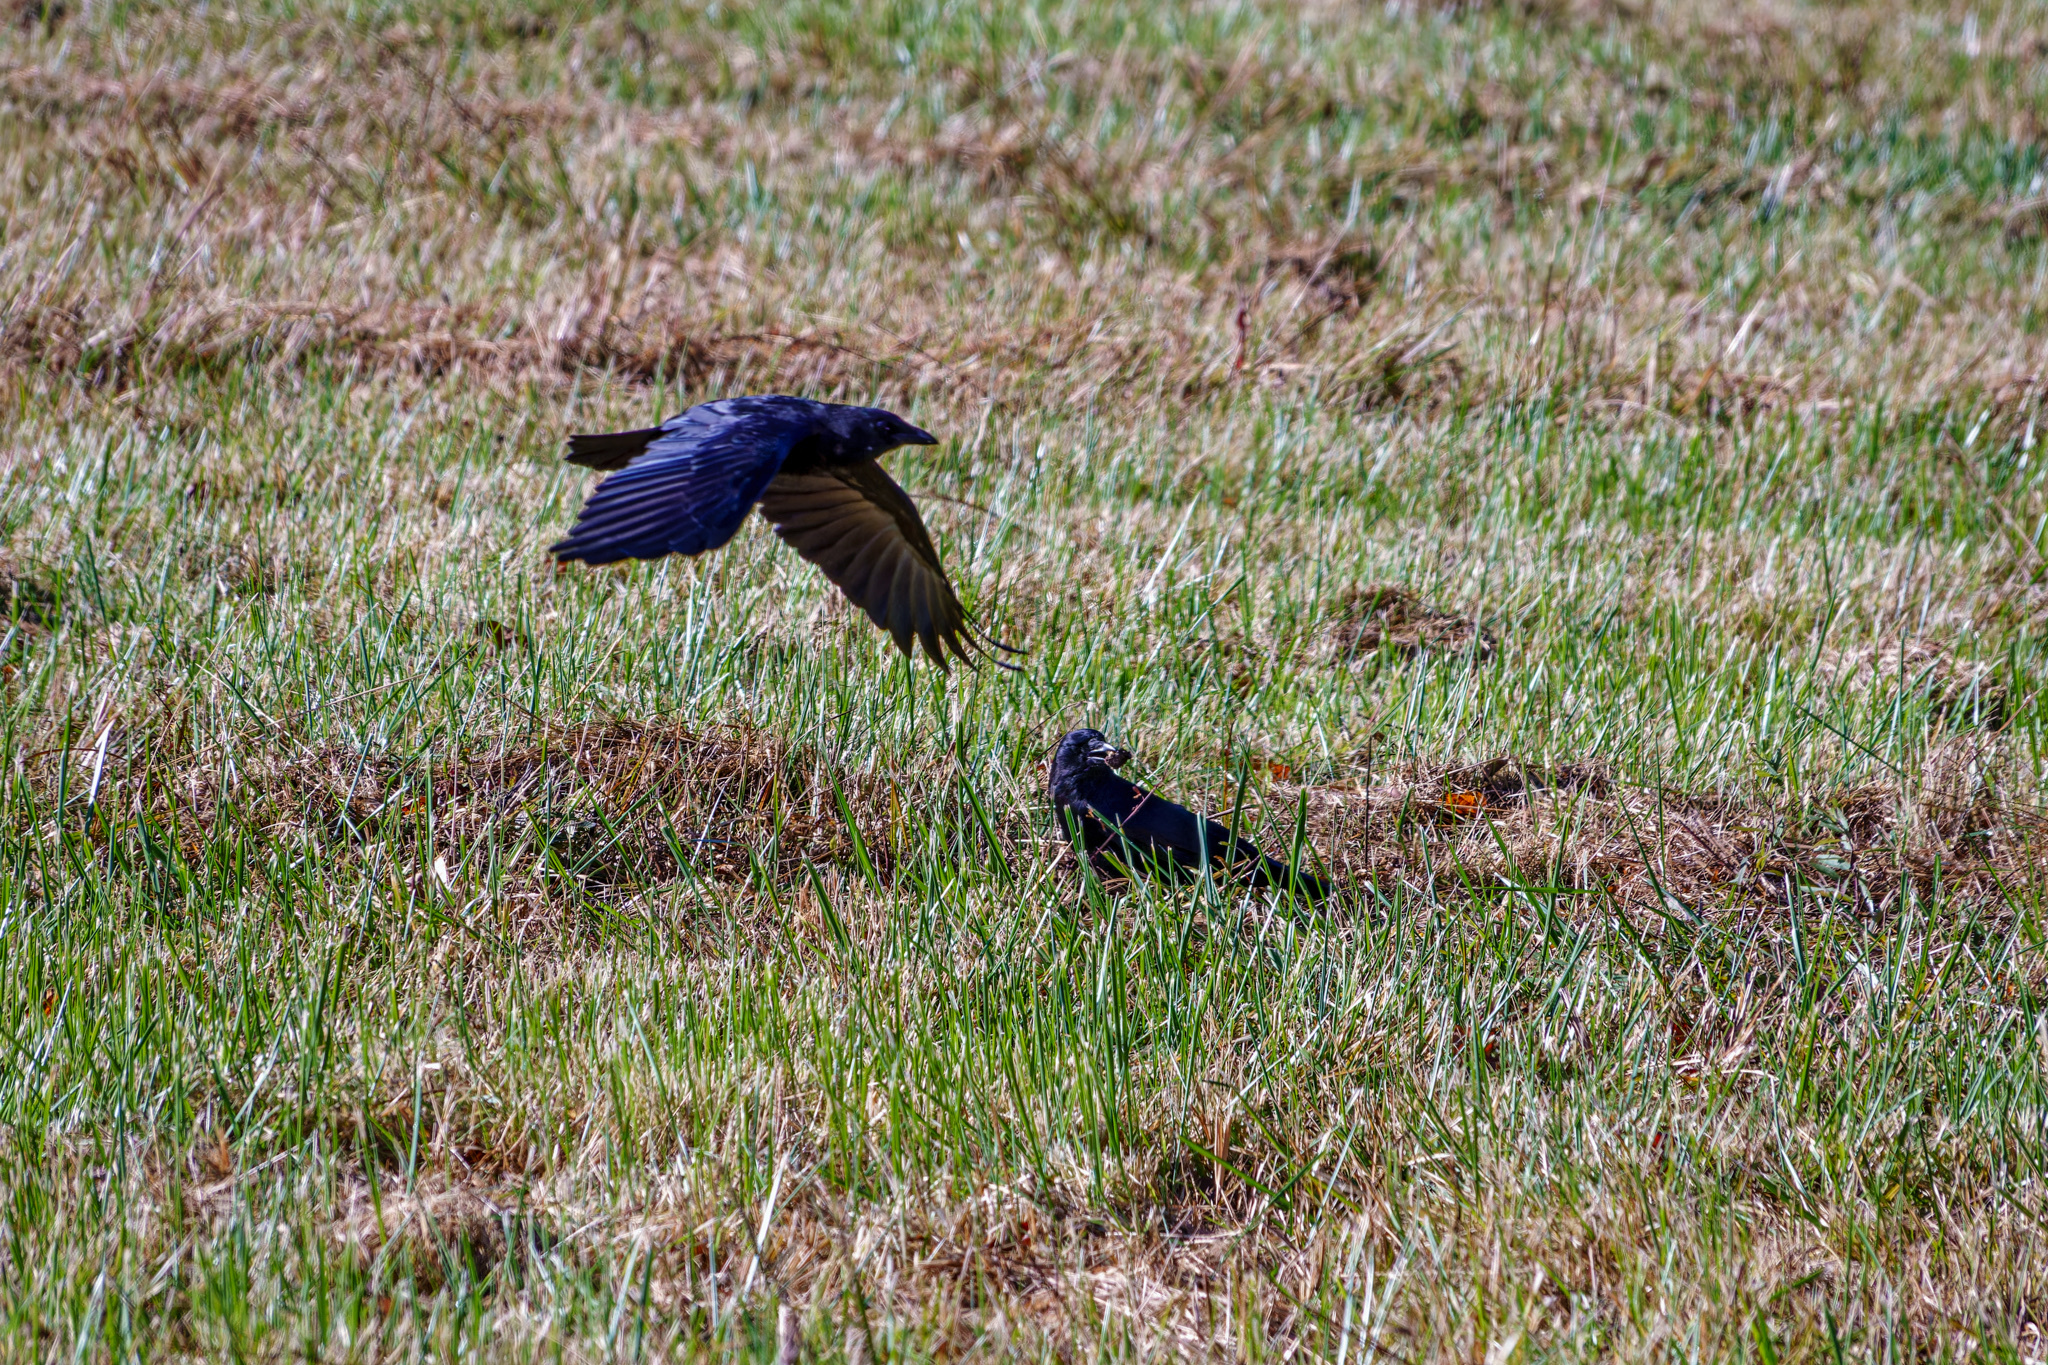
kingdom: Animalia
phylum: Chordata
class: Aves
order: Passeriformes
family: Corvidae
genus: Corvus
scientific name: Corvus brachyrhynchos
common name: American crow
